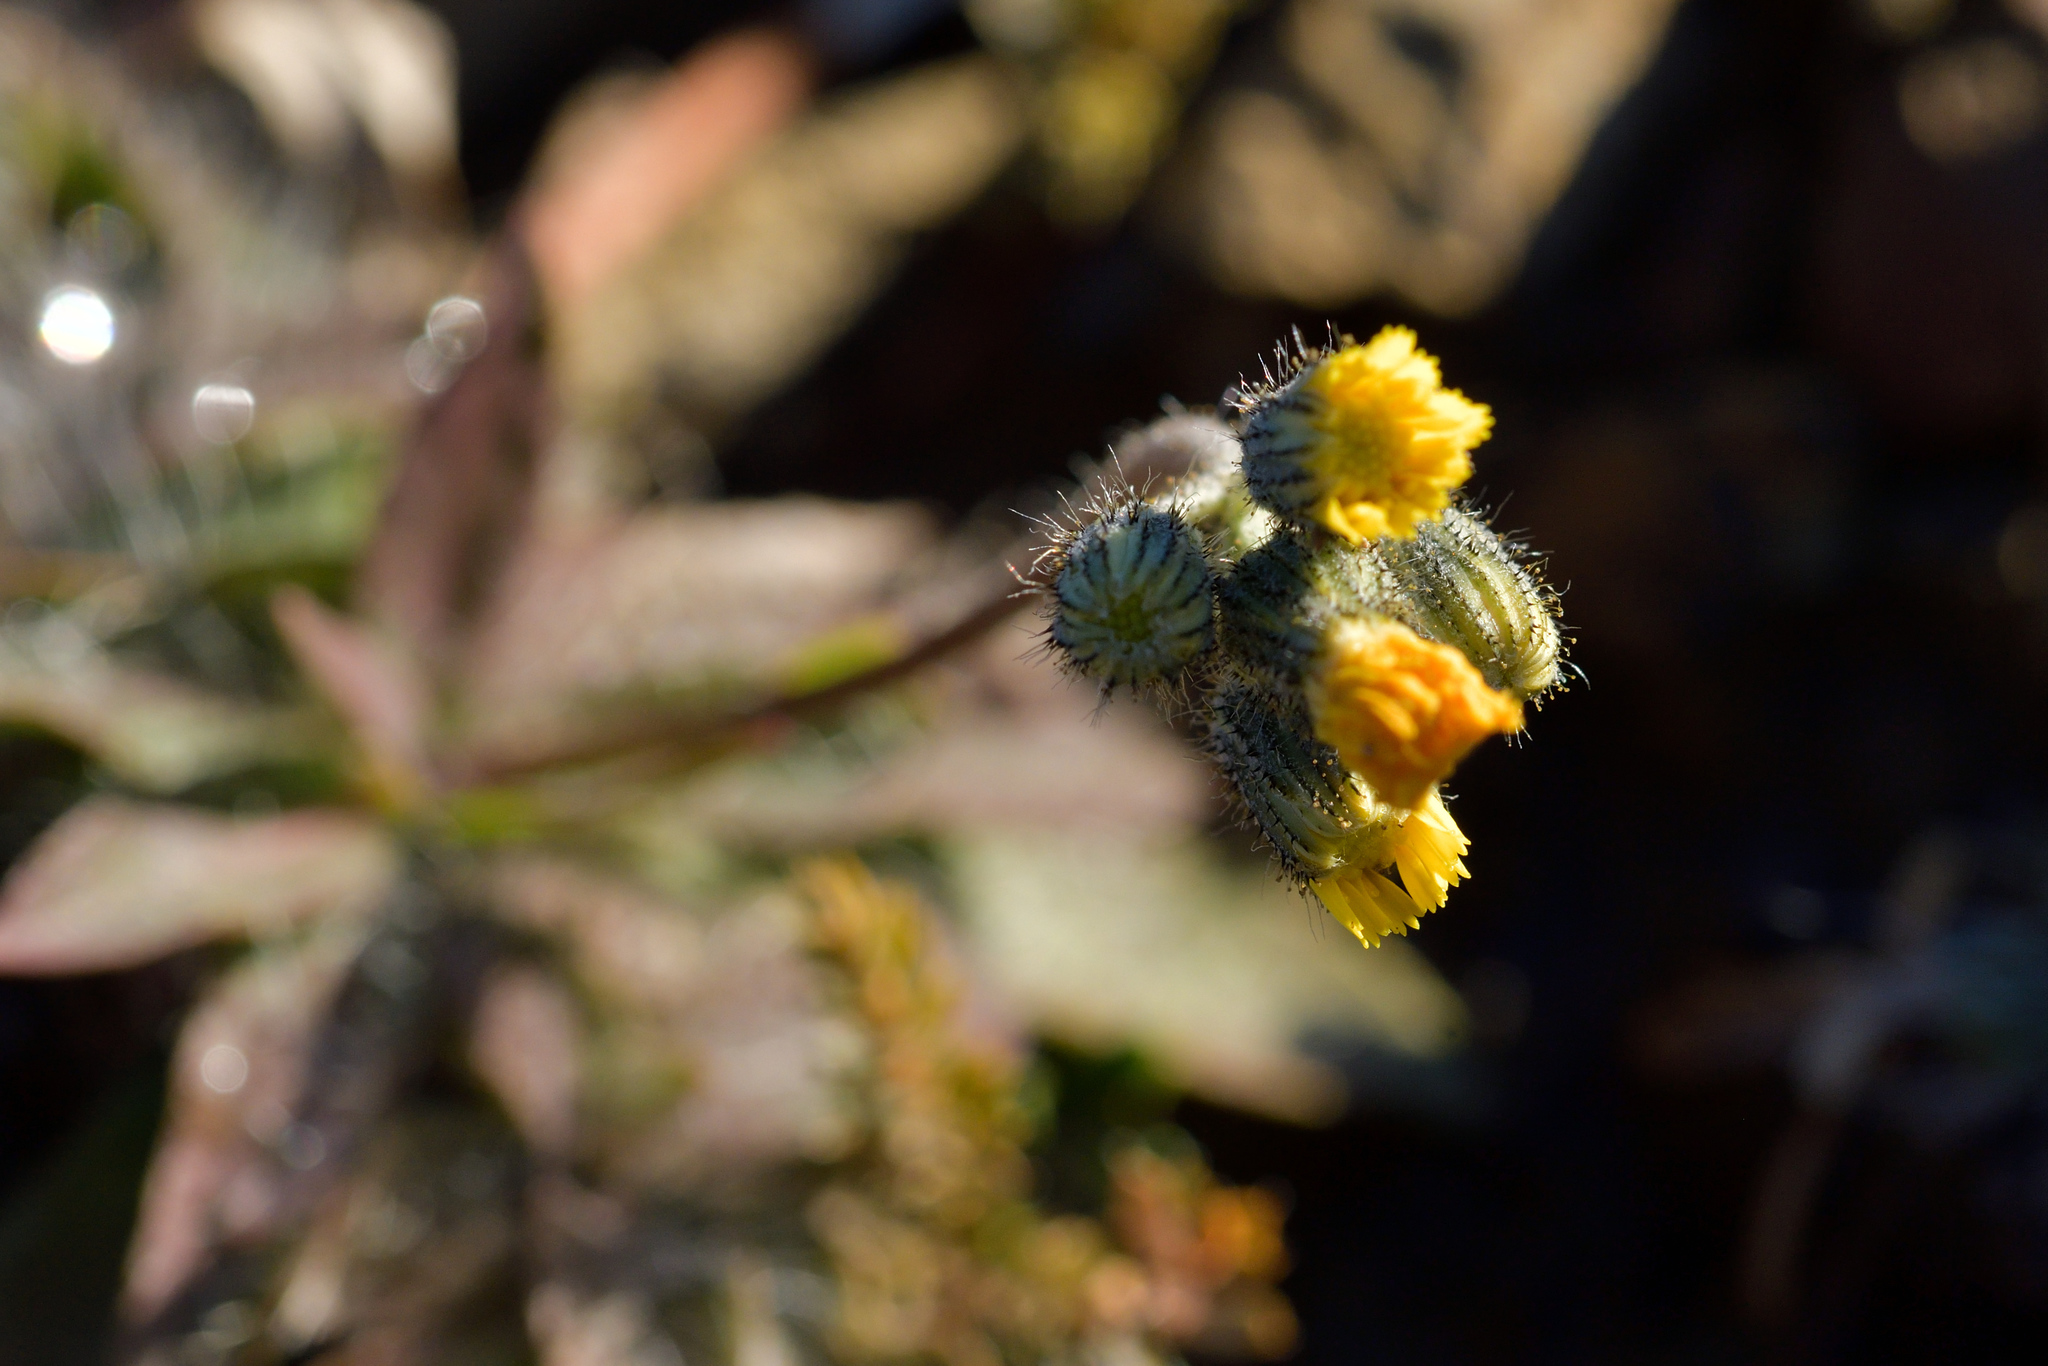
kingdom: Plantae
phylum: Tracheophyta
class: Magnoliopsida
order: Asterales
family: Asteraceae
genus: Pilosella
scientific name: Pilosella officinarum
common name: Mouse-ear hawkweed
